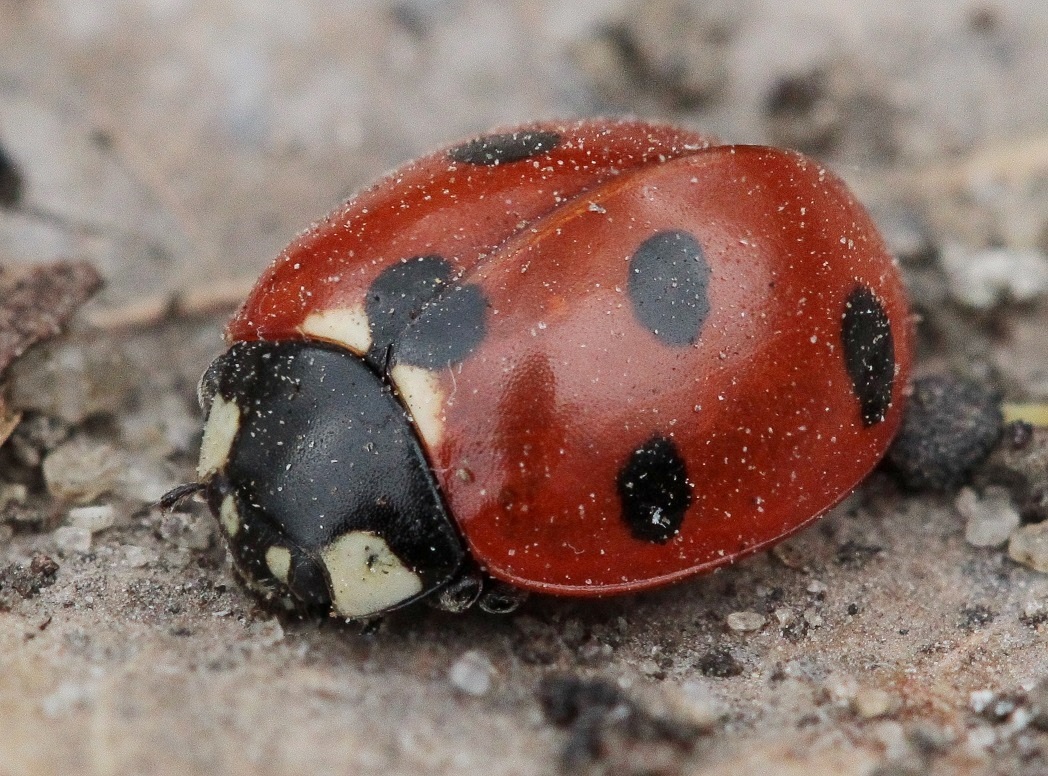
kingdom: Animalia
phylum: Arthropoda
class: Insecta
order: Coleoptera
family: Coccinellidae
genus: Coccinella
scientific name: Coccinella septempunctata
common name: Sevenspotted lady beetle
